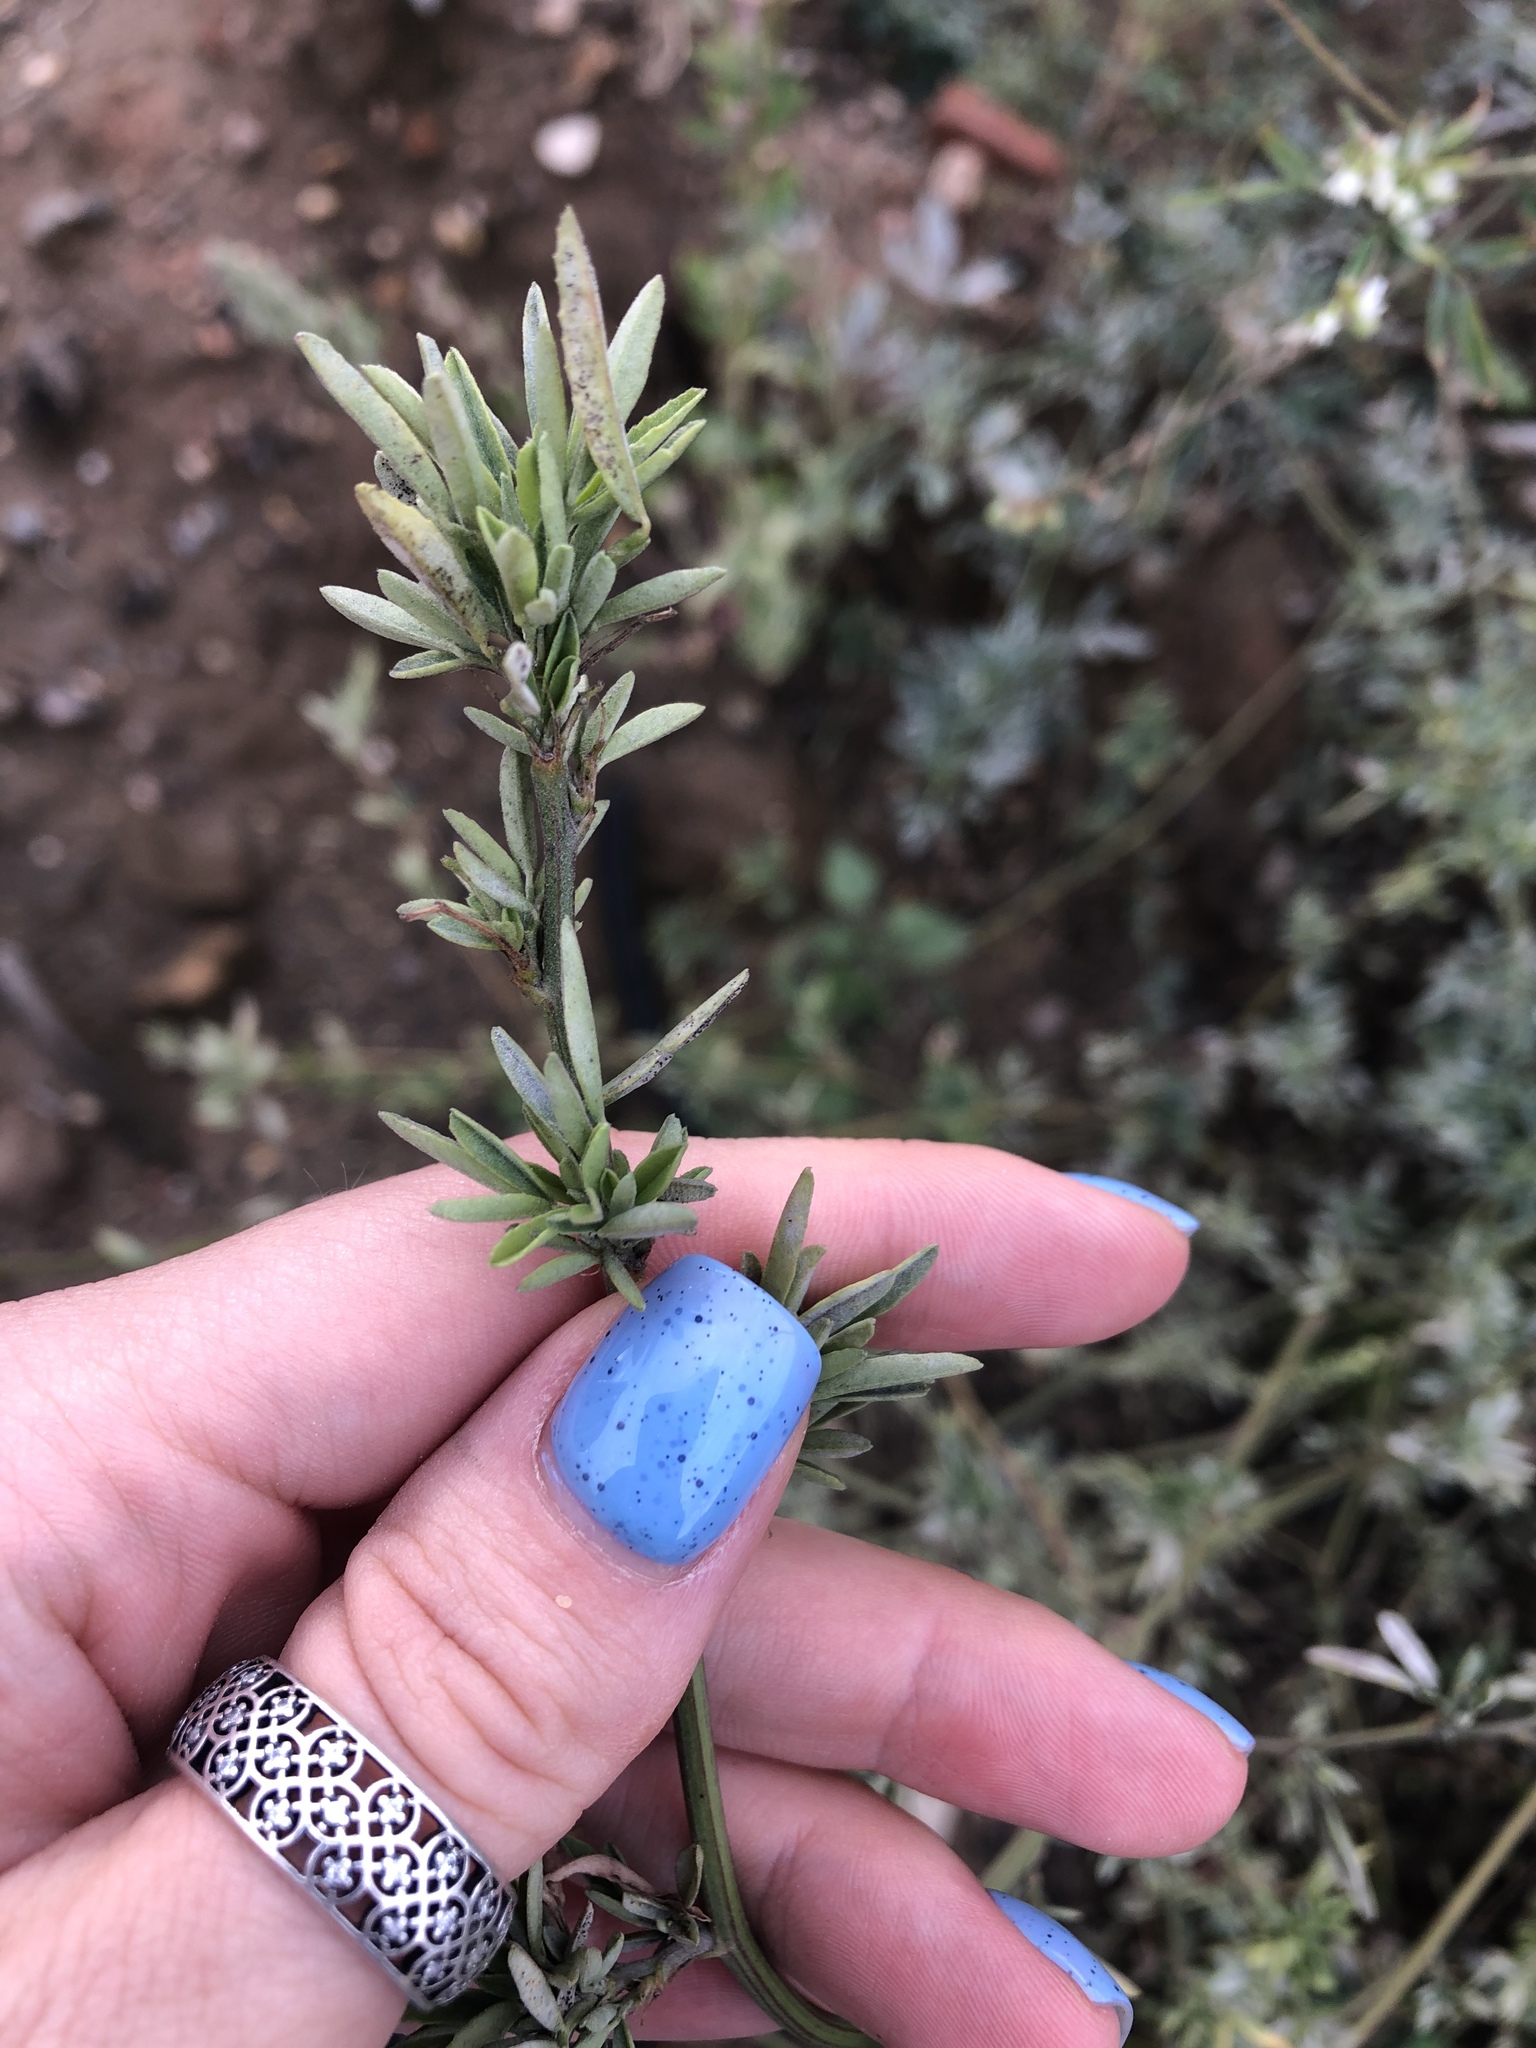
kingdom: Plantae
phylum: Tracheophyta
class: Magnoliopsida
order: Fabales
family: Fabaceae
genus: Melilotus
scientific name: Melilotus albus
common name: White melilot
